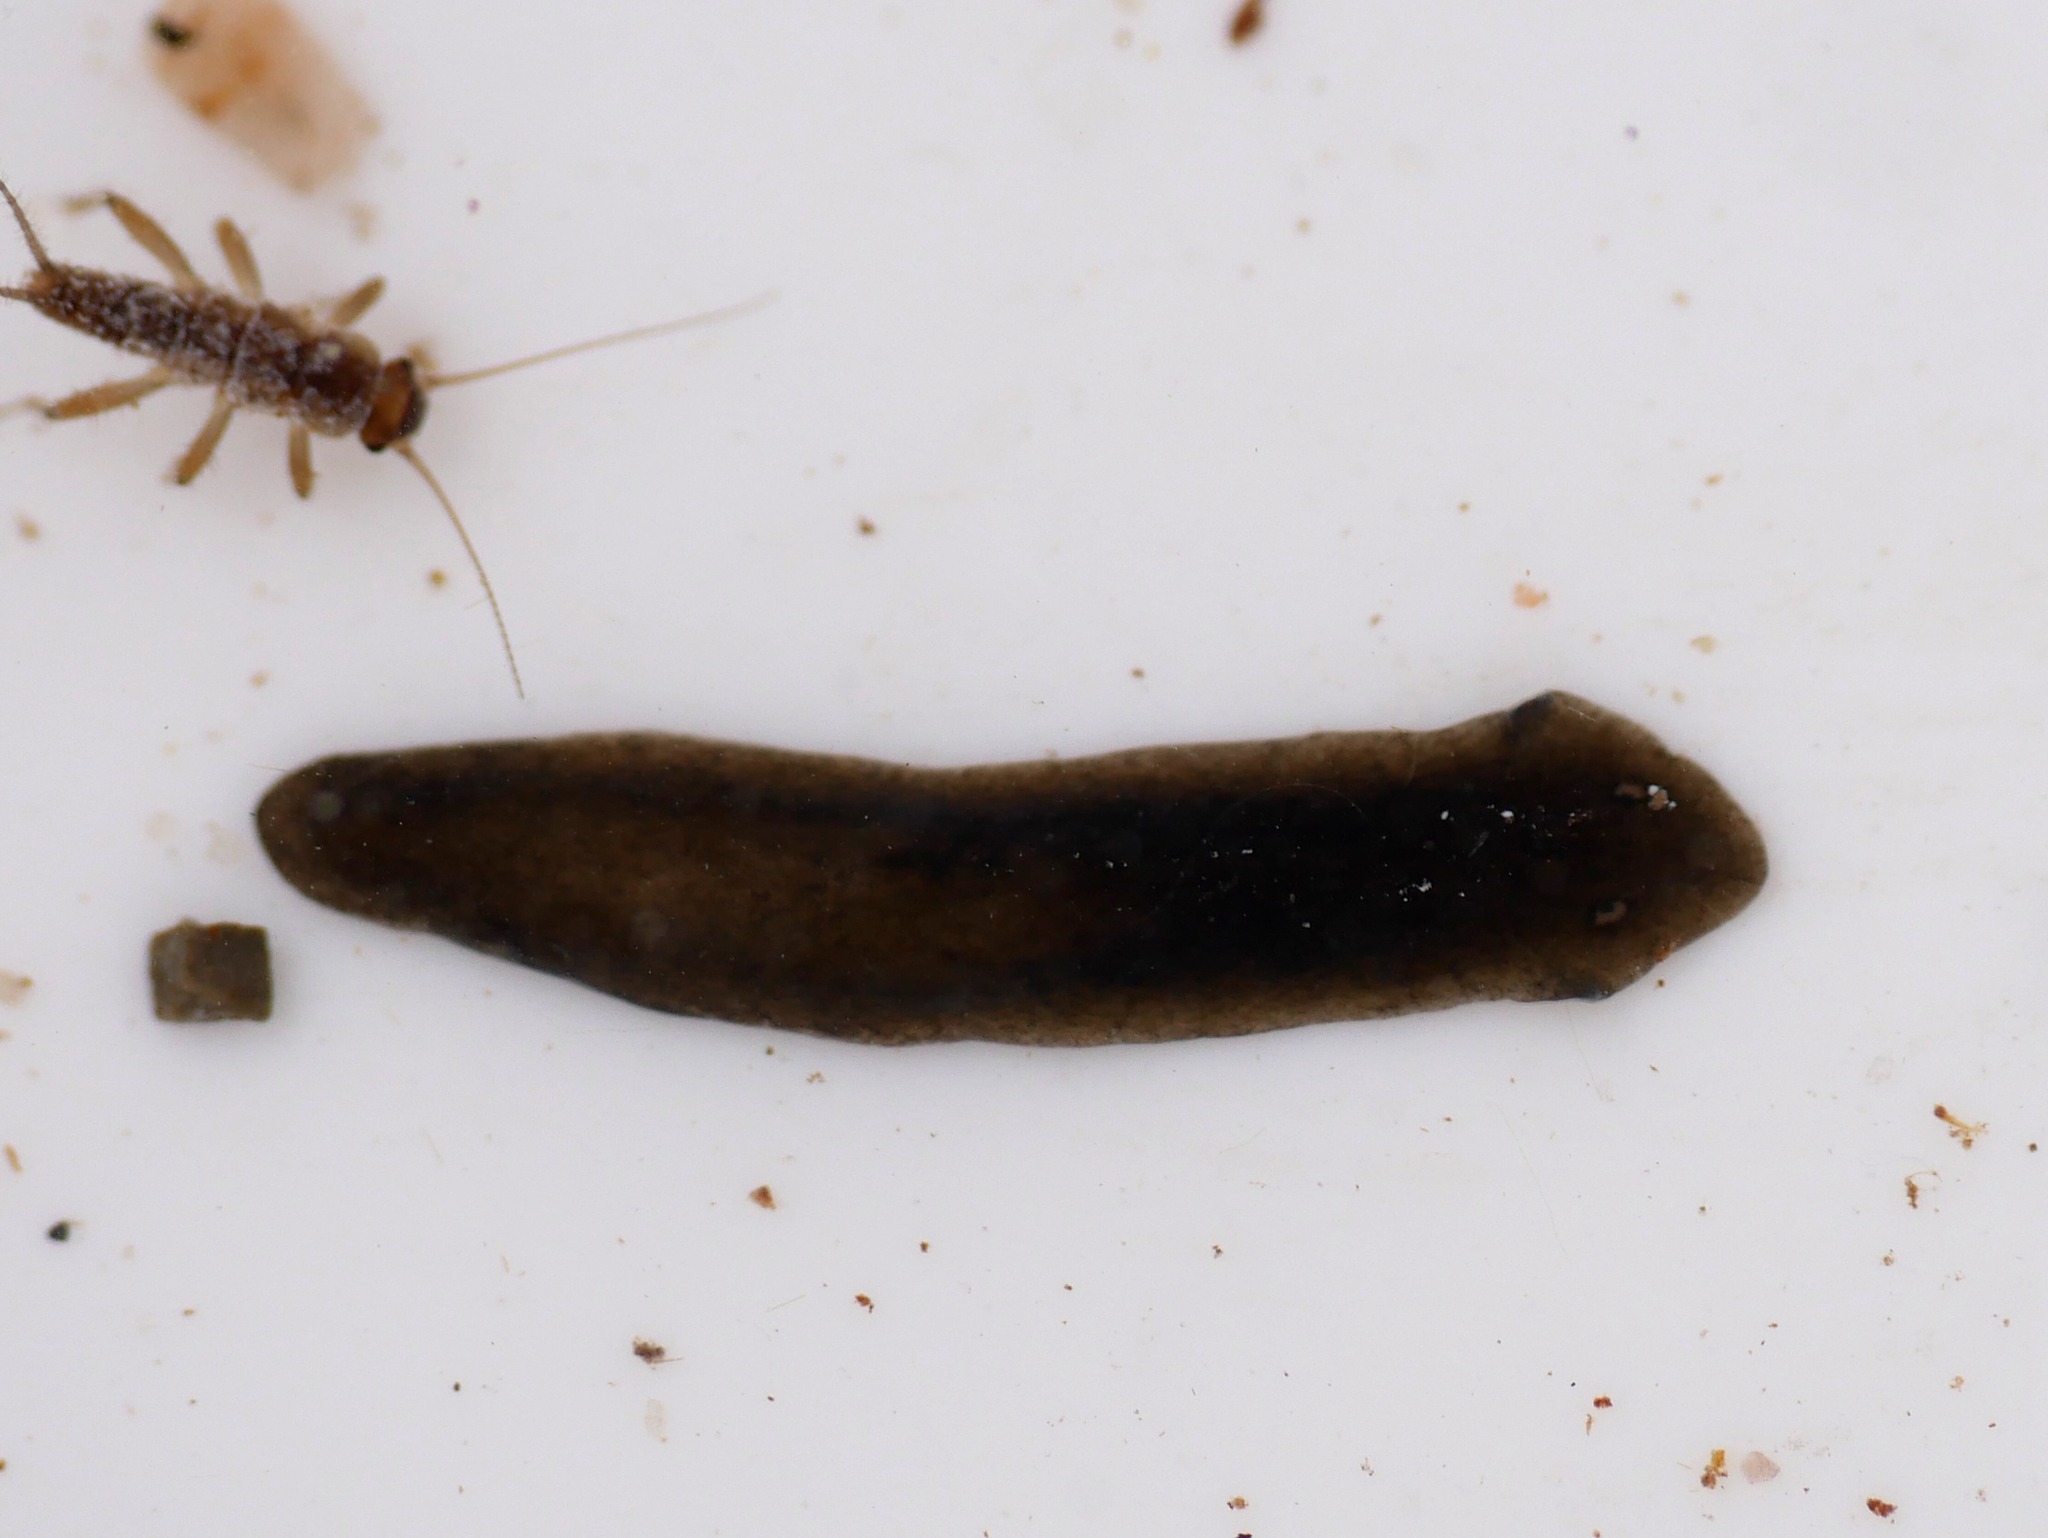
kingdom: Animalia
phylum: Platyhelminthes
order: Tricladida
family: Dugesiidae
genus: Dugesia
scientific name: Dugesia gonocephala
